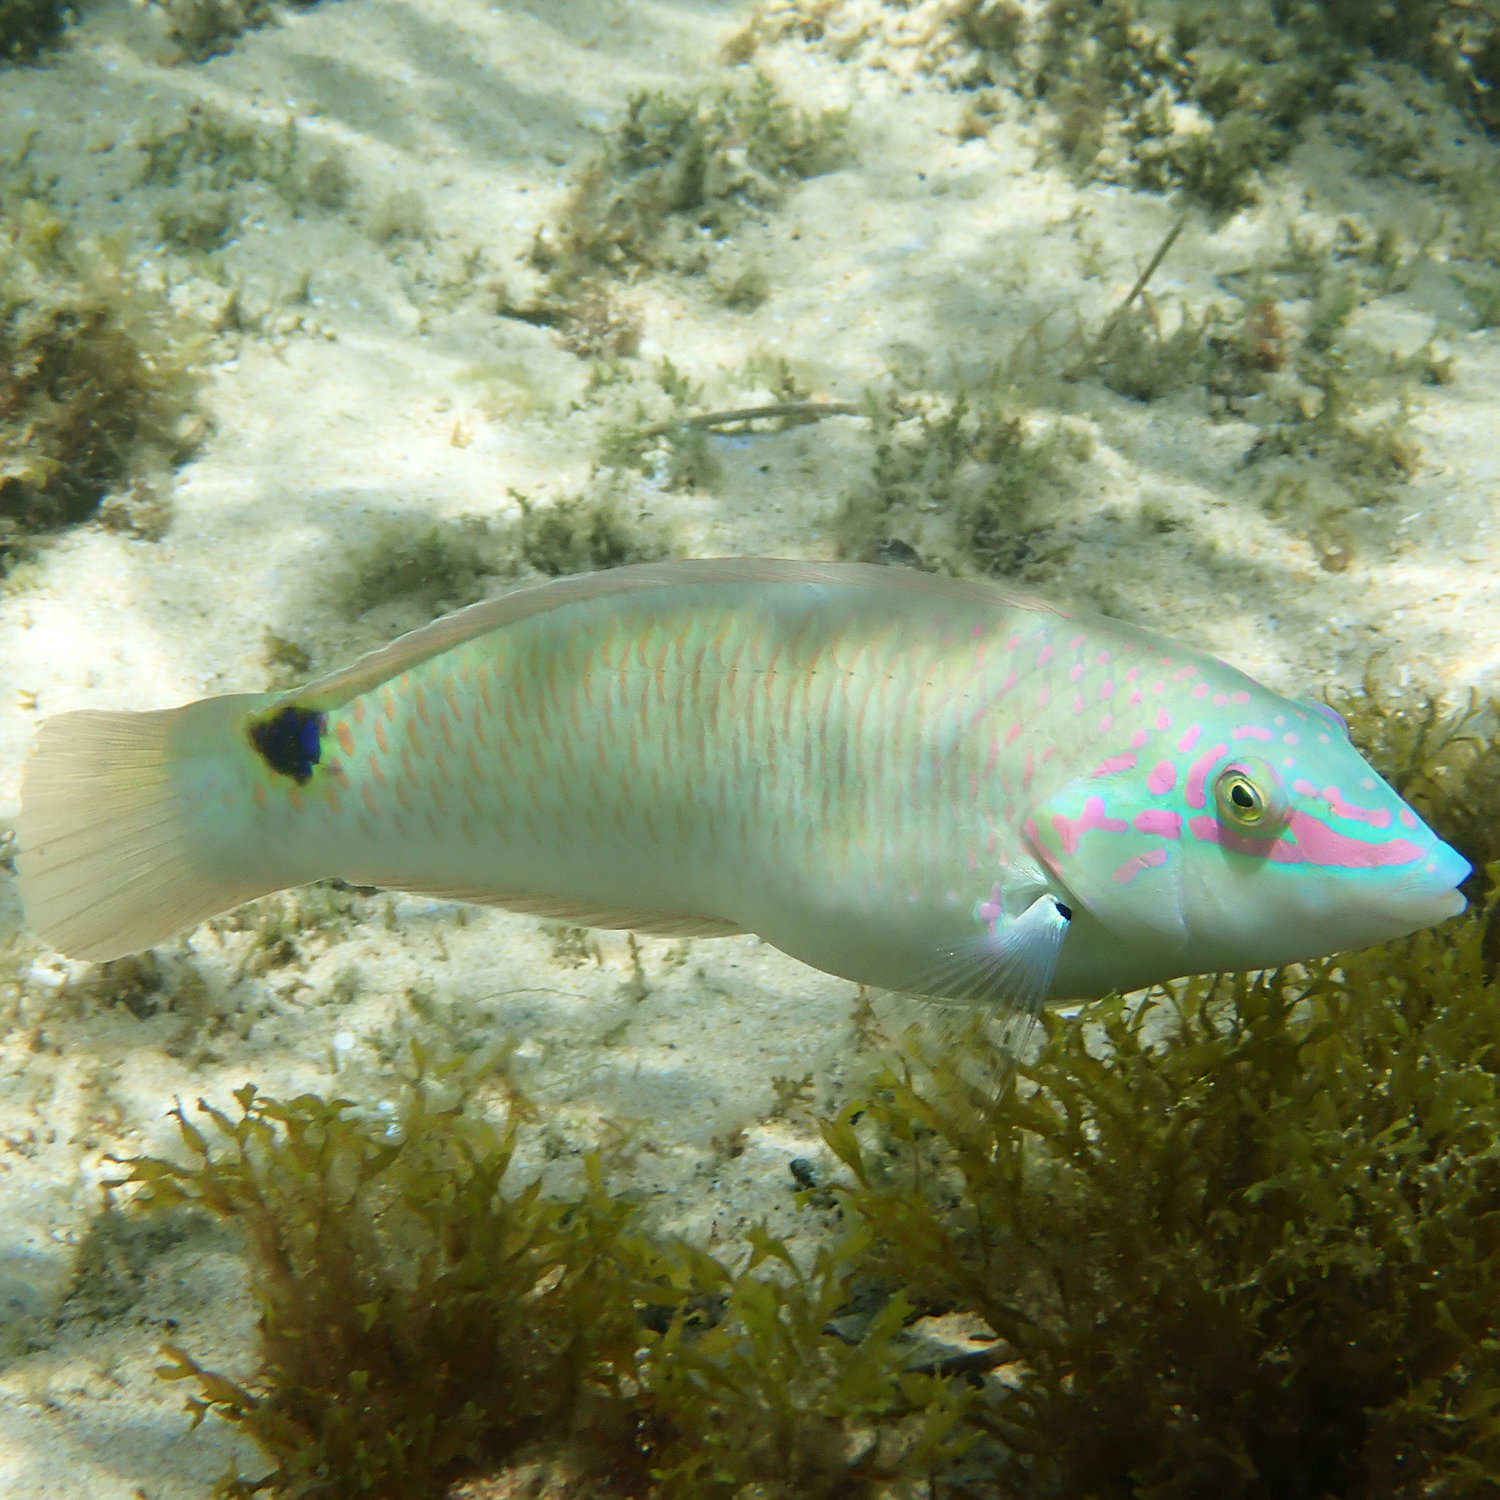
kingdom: Animalia
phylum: Chordata
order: Perciformes
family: Labridae
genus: Halichoeres
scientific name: Halichoeres trimaculatus
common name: Three-spot wrasse
